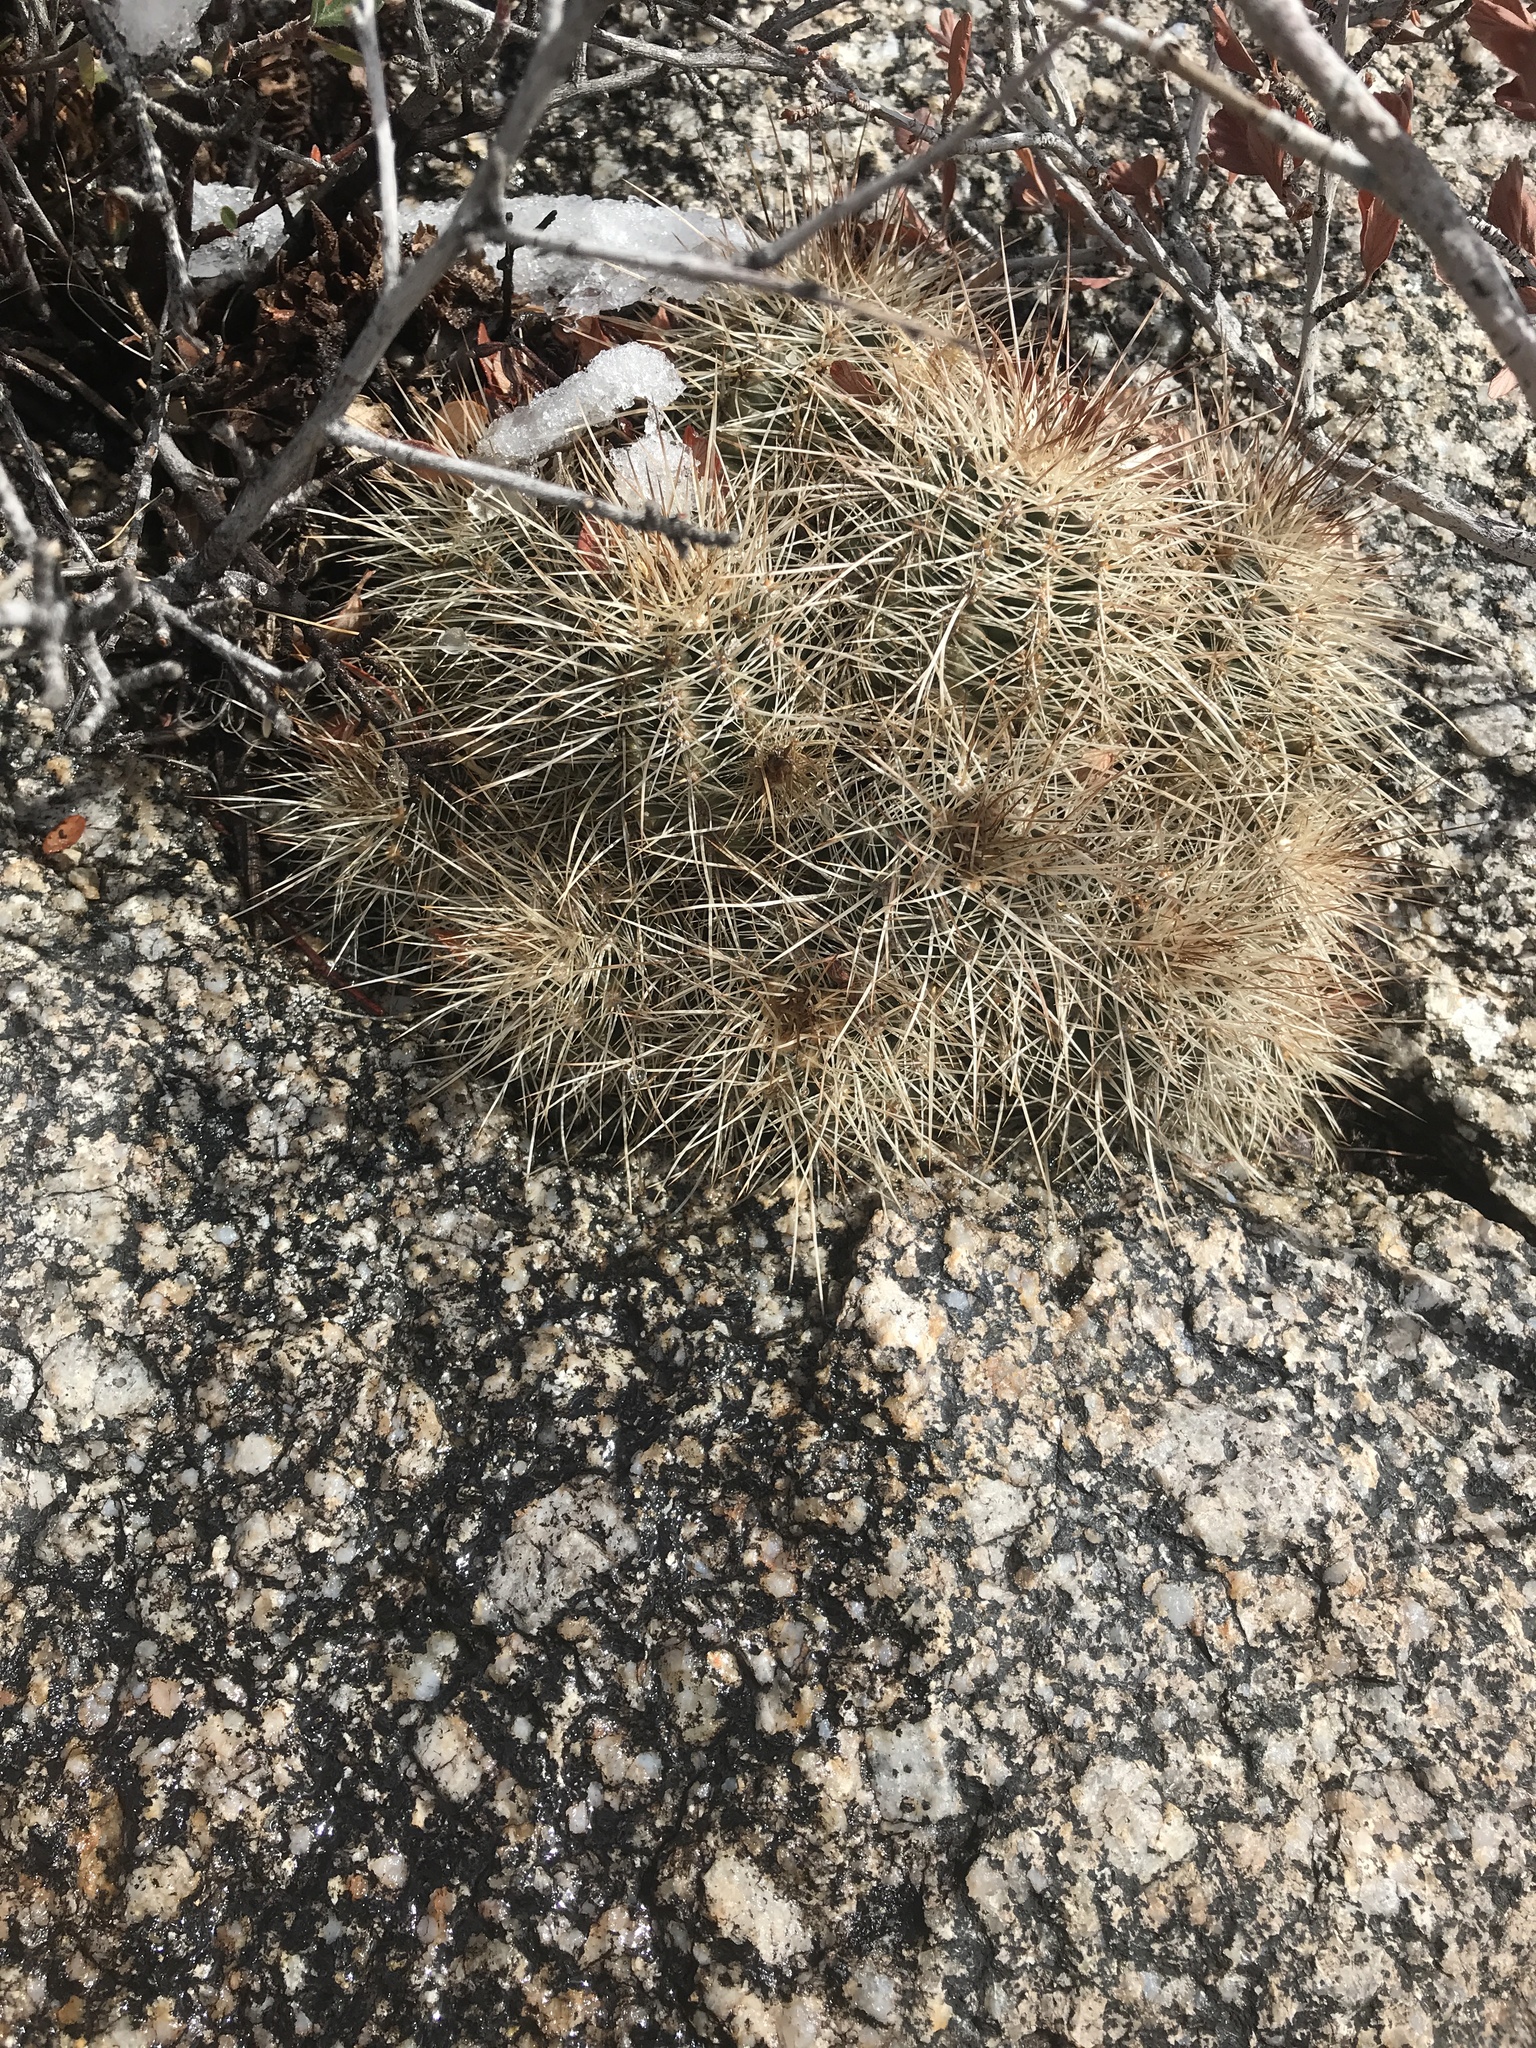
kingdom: Plantae
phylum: Tracheophyta
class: Magnoliopsida
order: Caryophyllales
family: Cactaceae
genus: Echinocereus
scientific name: Echinocereus coccineus
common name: Scarlet hedgehog cactus
